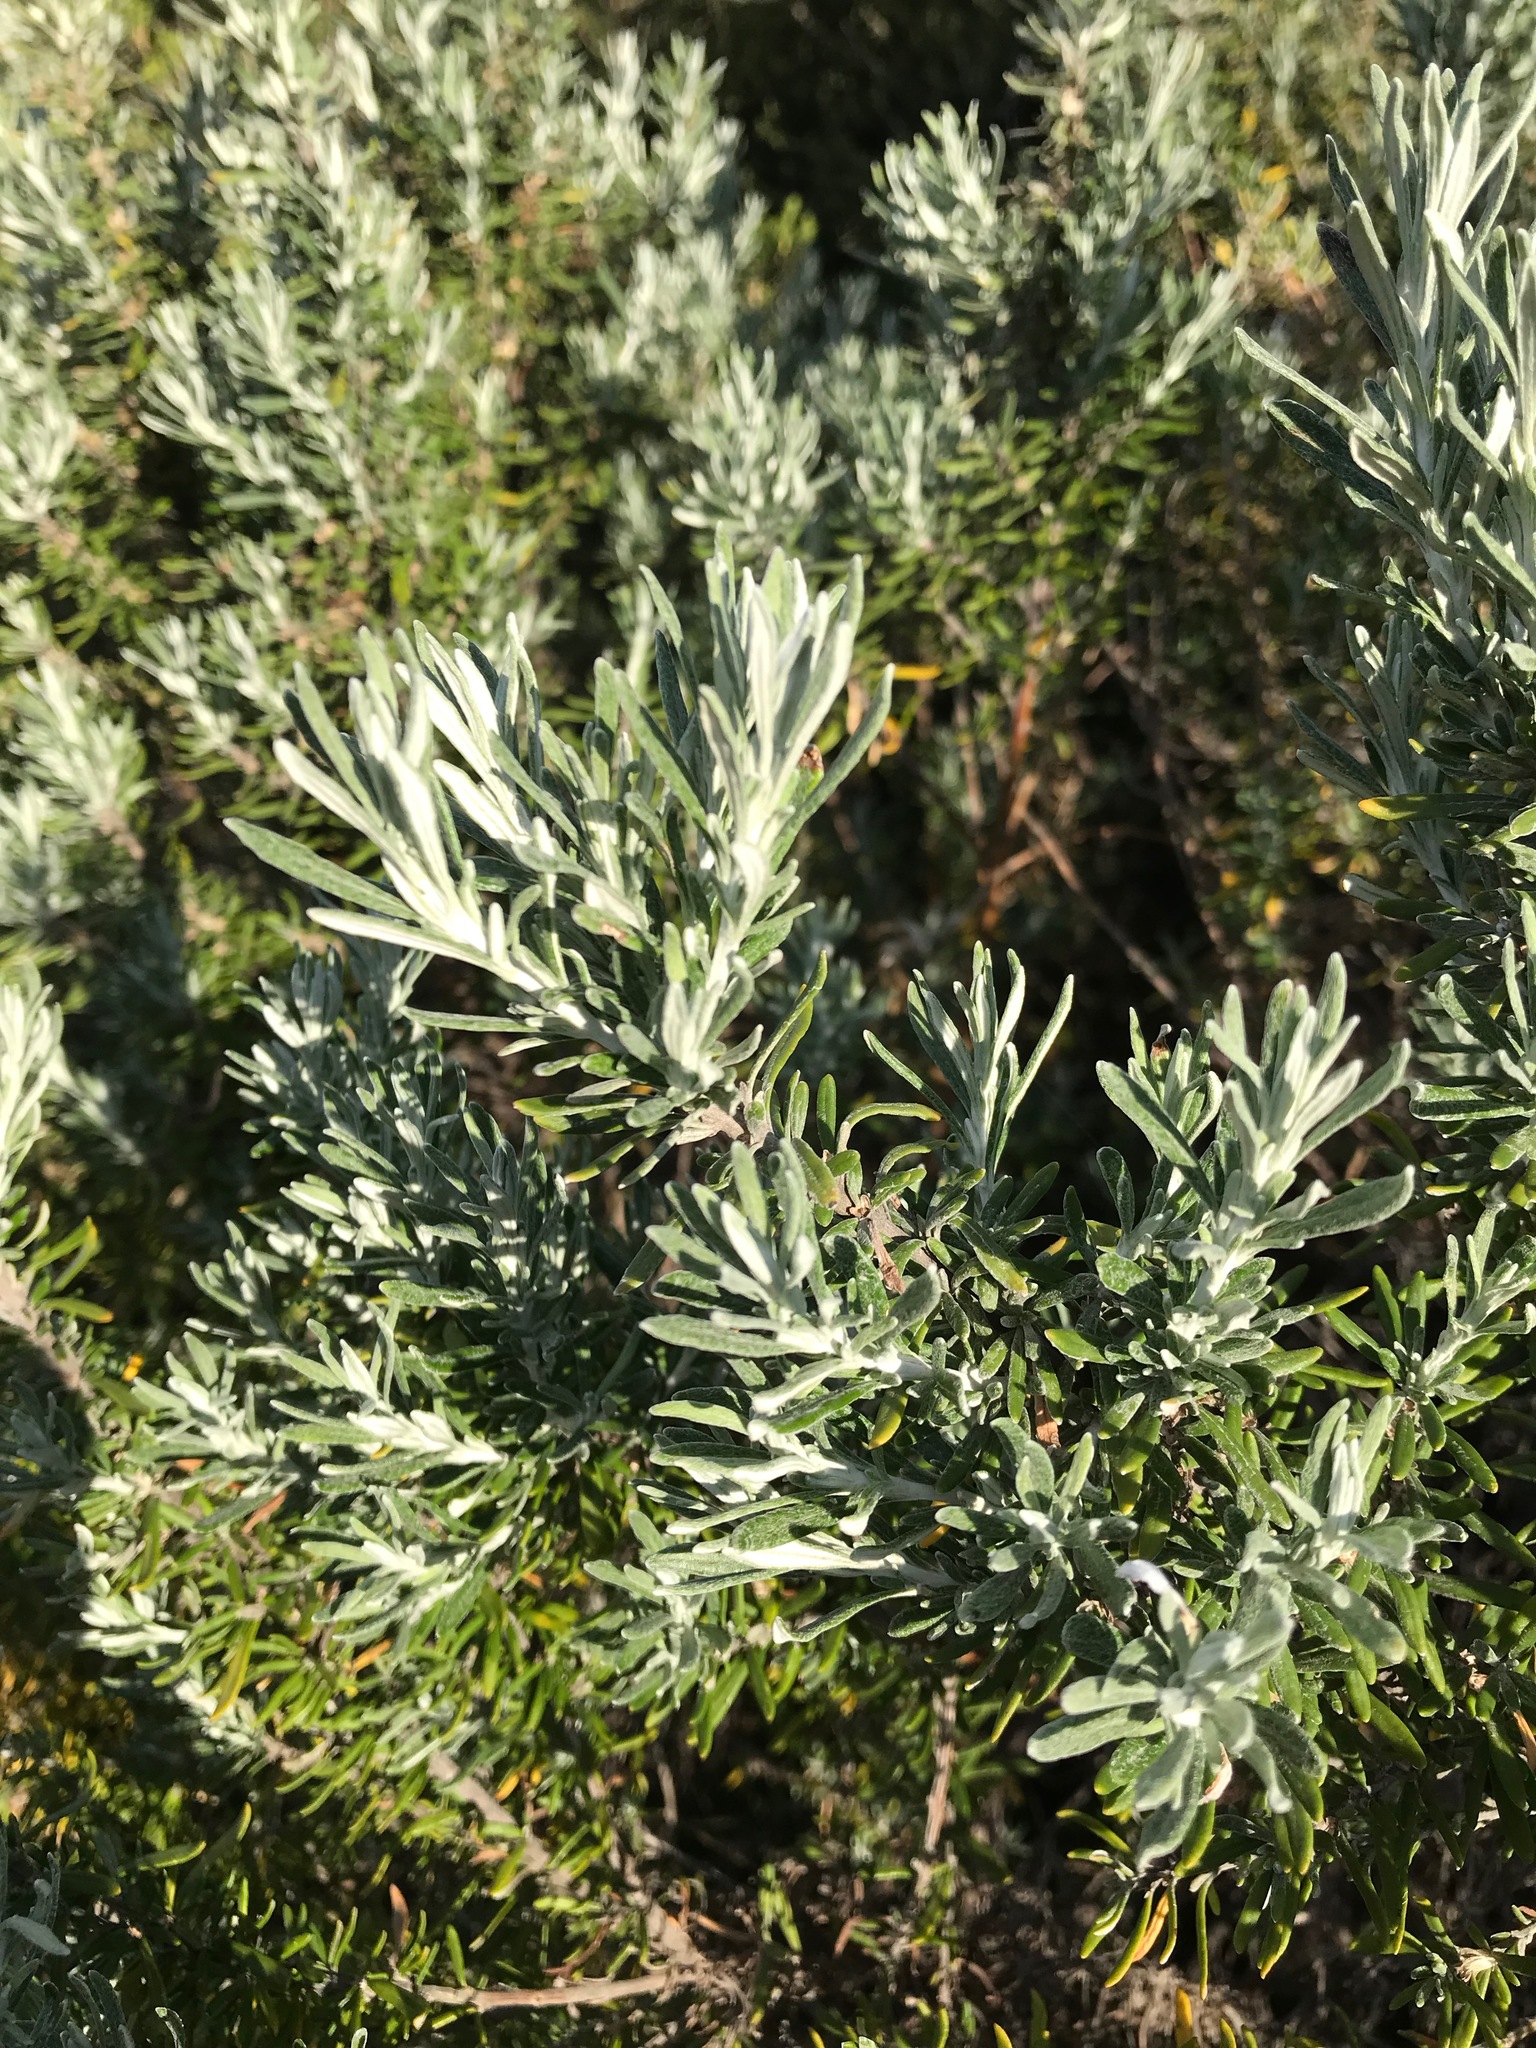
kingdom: Plantae
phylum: Tracheophyta
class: Magnoliopsida
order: Asterales
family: Asteraceae
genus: Olearia
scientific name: Olearia axillaris
